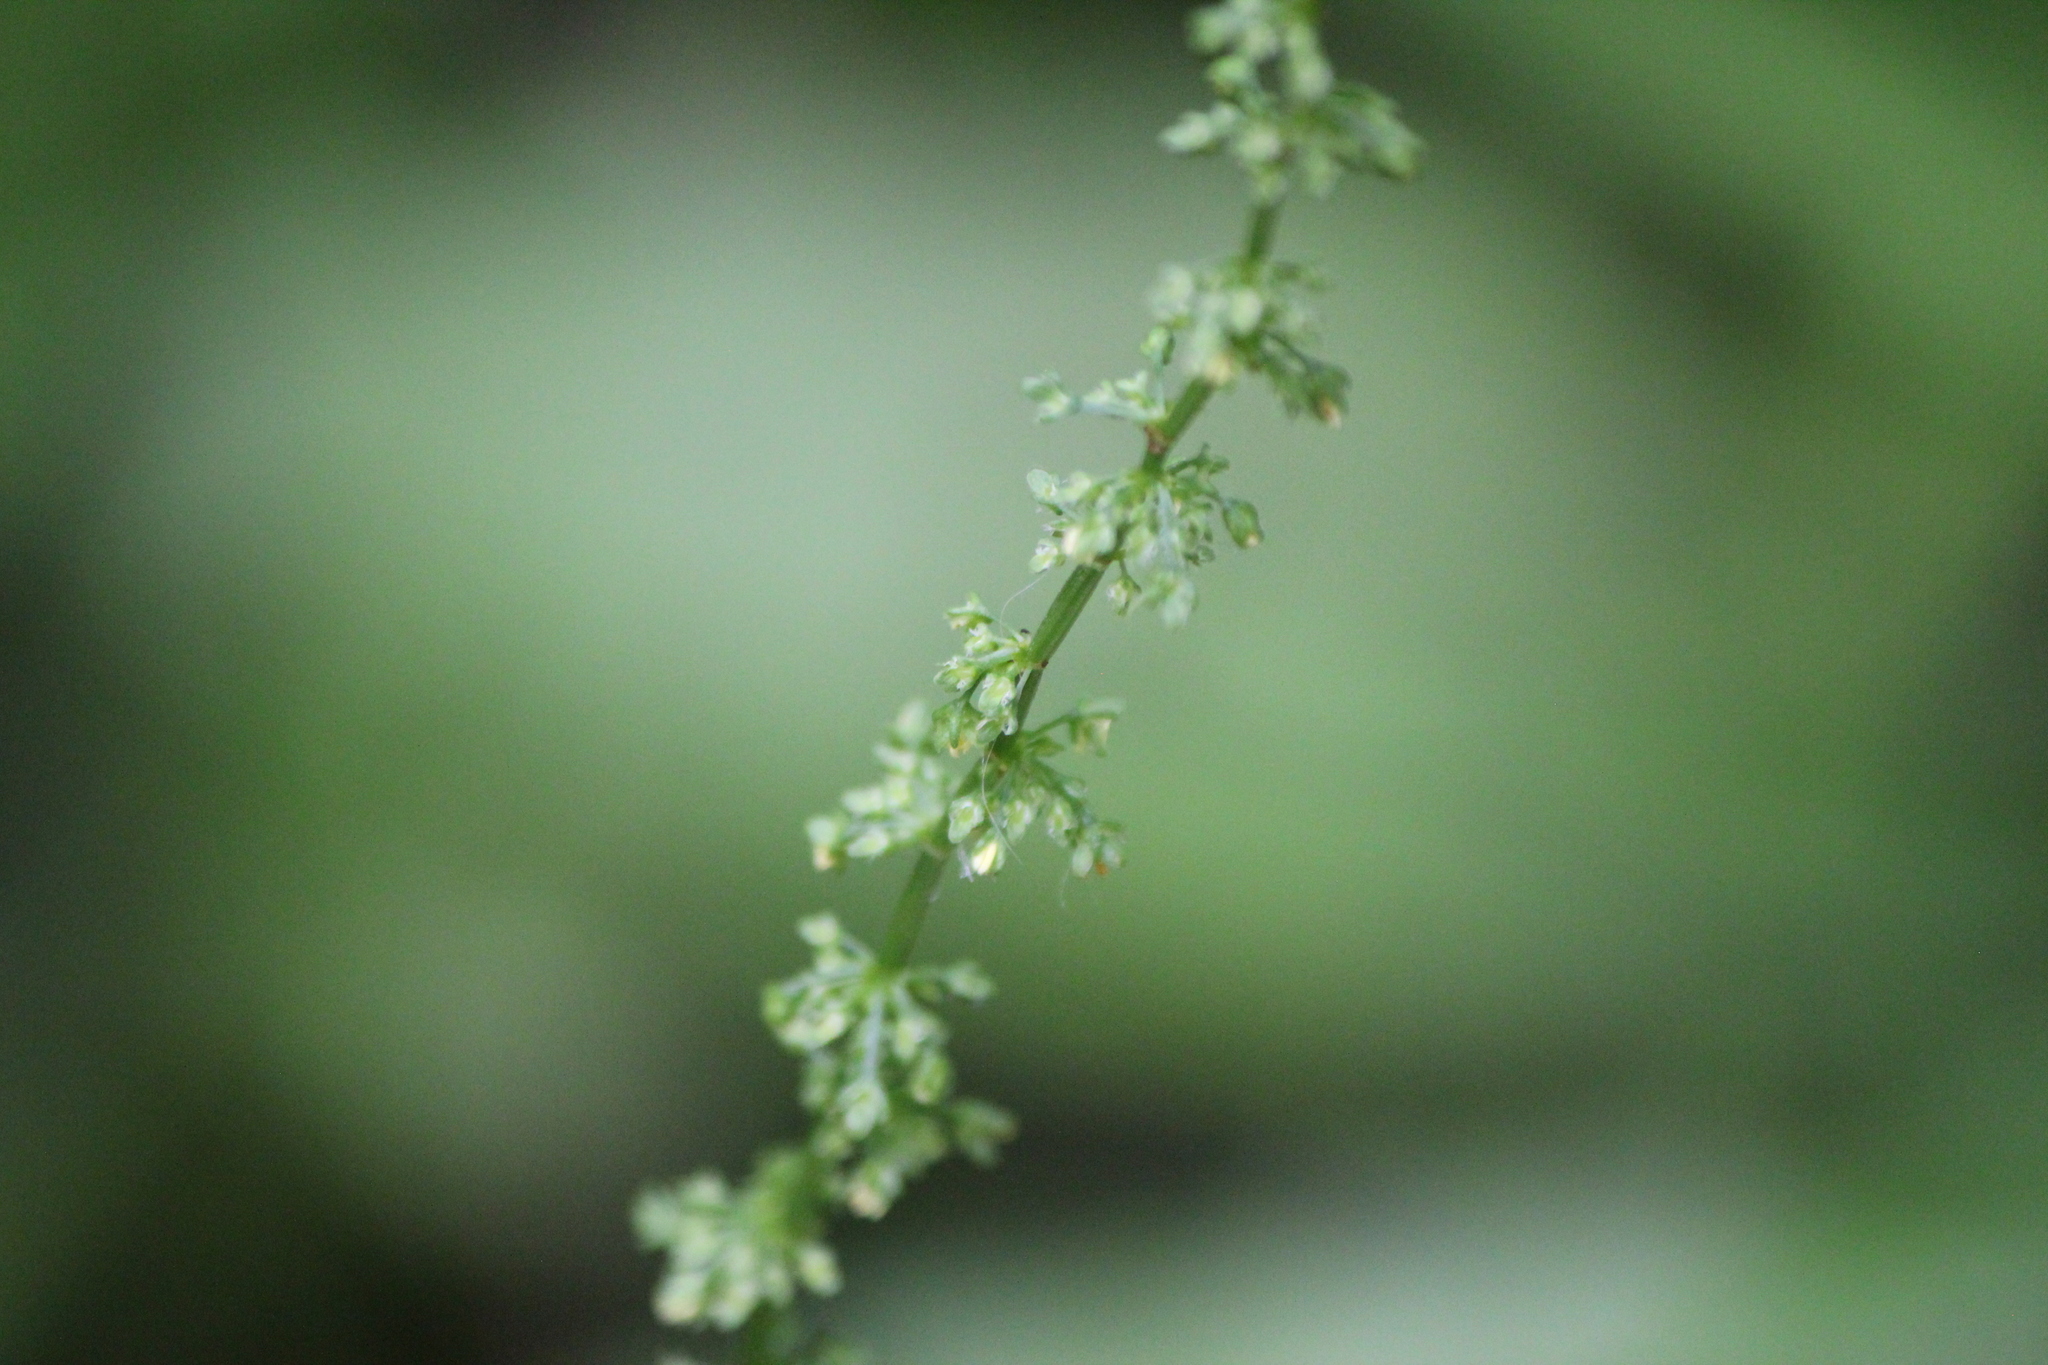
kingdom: Plantae
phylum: Tracheophyta
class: Magnoliopsida
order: Caryophyllales
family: Polygonaceae
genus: Rumex
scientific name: Rumex crispus
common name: Curled dock
